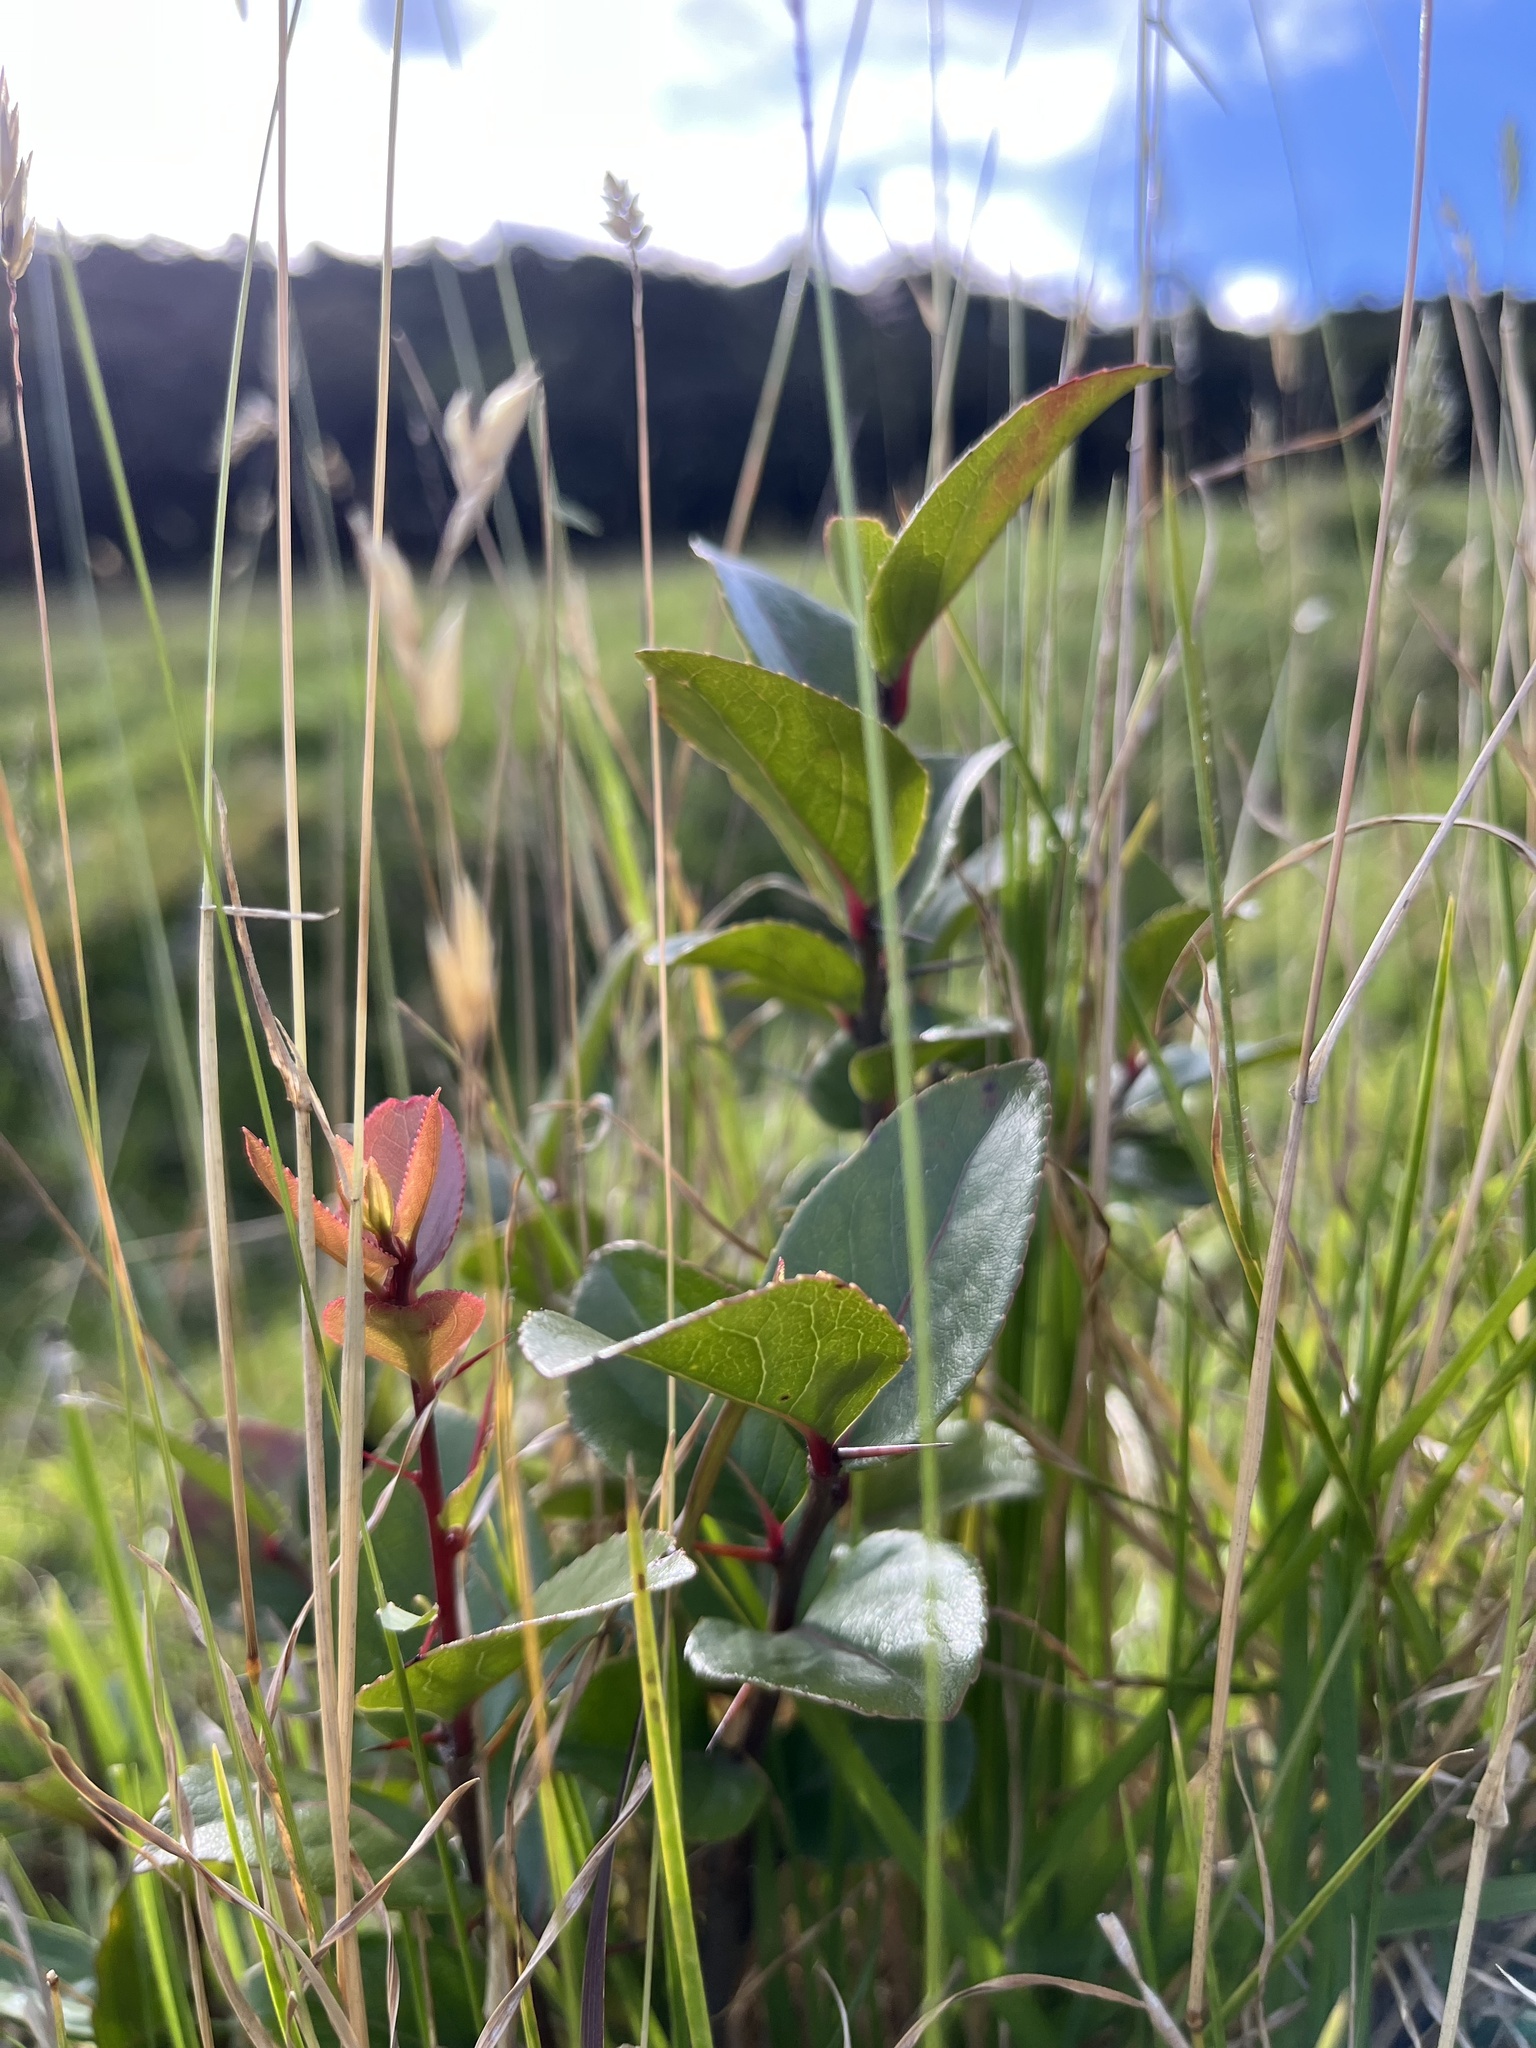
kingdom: Plantae
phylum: Tracheophyta
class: Magnoliopsida
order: Malpighiales
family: Salicaceae
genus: Xylosma
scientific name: Xylosma spiculifera
